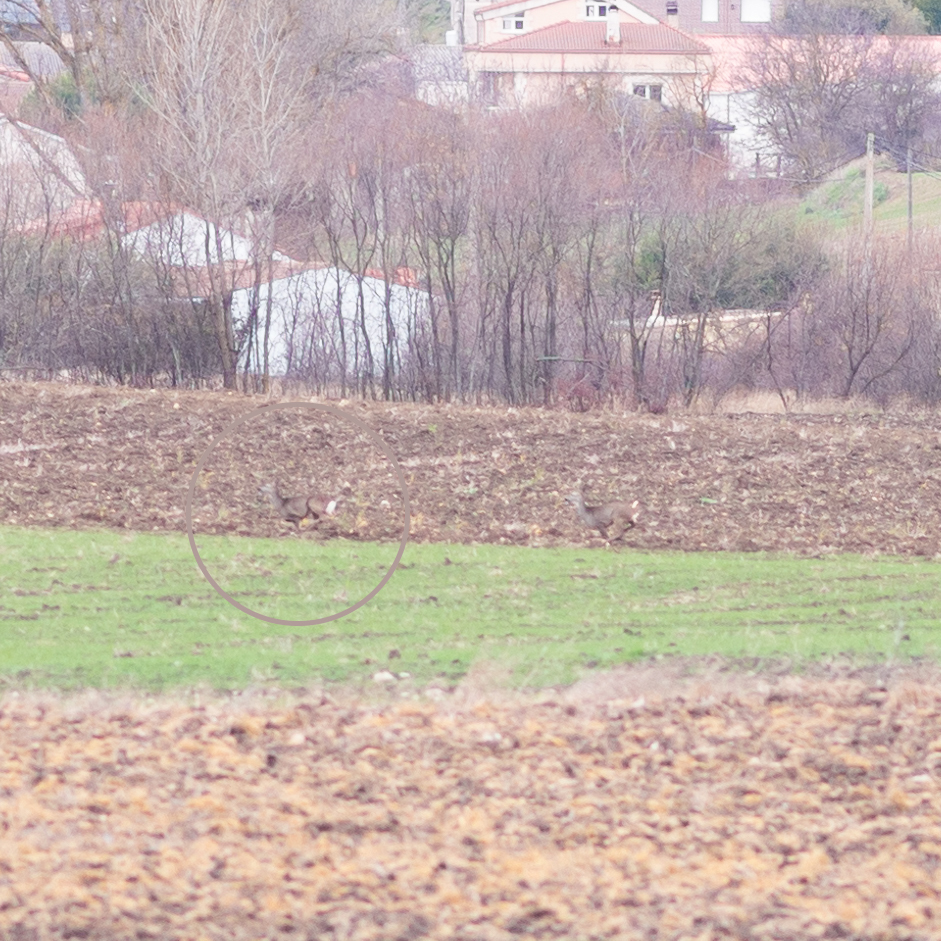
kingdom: Animalia
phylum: Chordata
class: Mammalia
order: Artiodactyla
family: Cervidae
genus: Capreolus
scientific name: Capreolus capreolus
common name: Western roe deer
